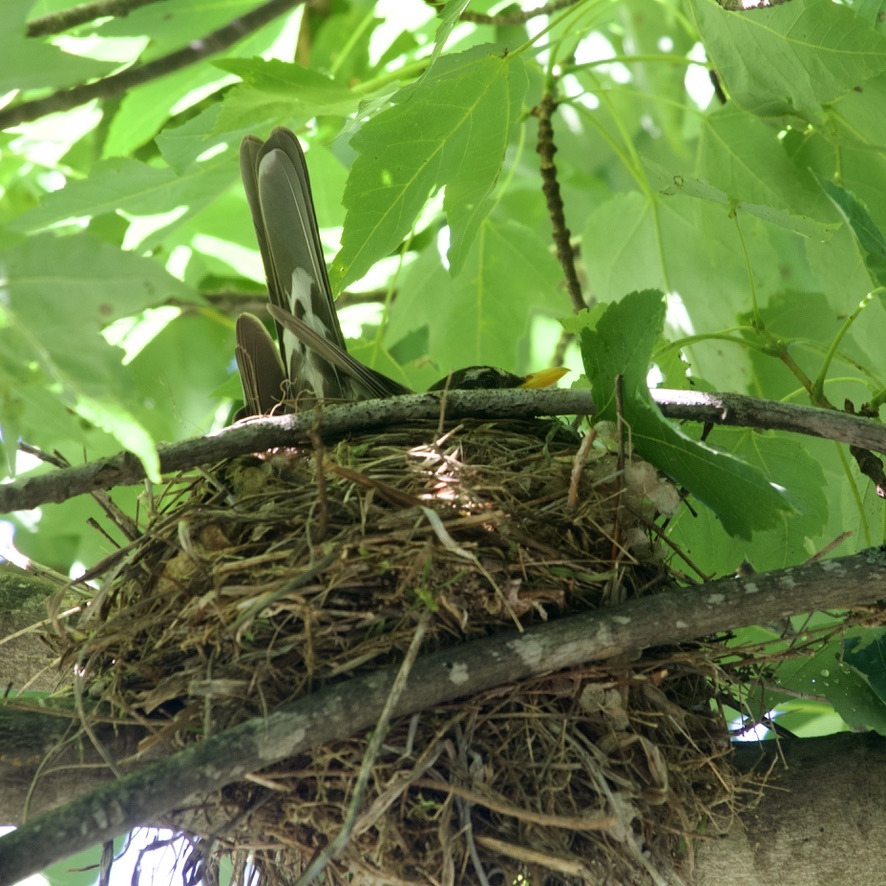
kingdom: Animalia
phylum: Chordata
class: Aves
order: Passeriformes
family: Turdidae
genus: Turdus
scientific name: Turdus migratorius
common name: American robin
